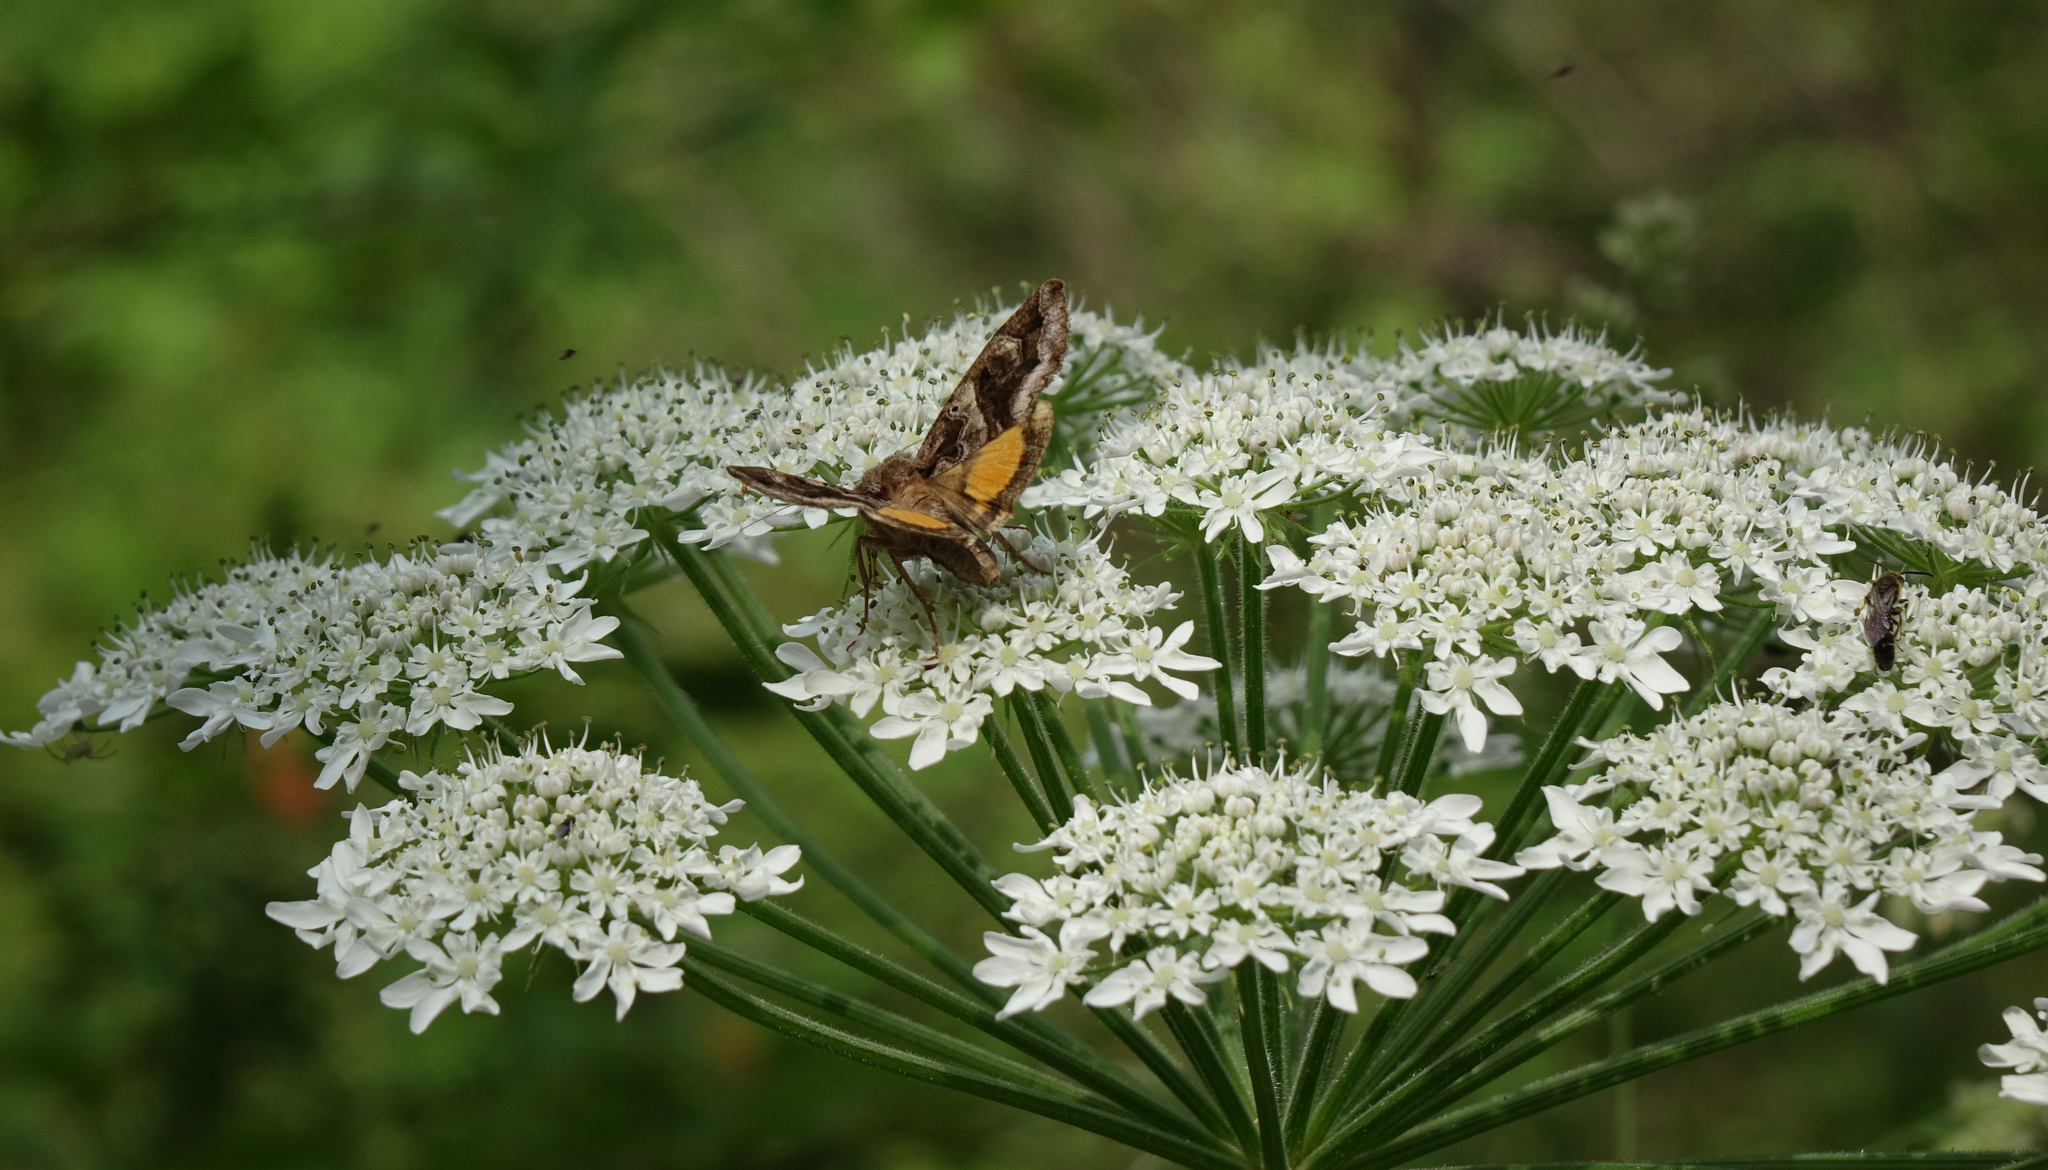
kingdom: Plantae
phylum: Tracheophyta
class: Magnoliopsida
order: Apiales
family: Apiaceae
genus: Heracleum
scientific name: Heracleum dissectum
